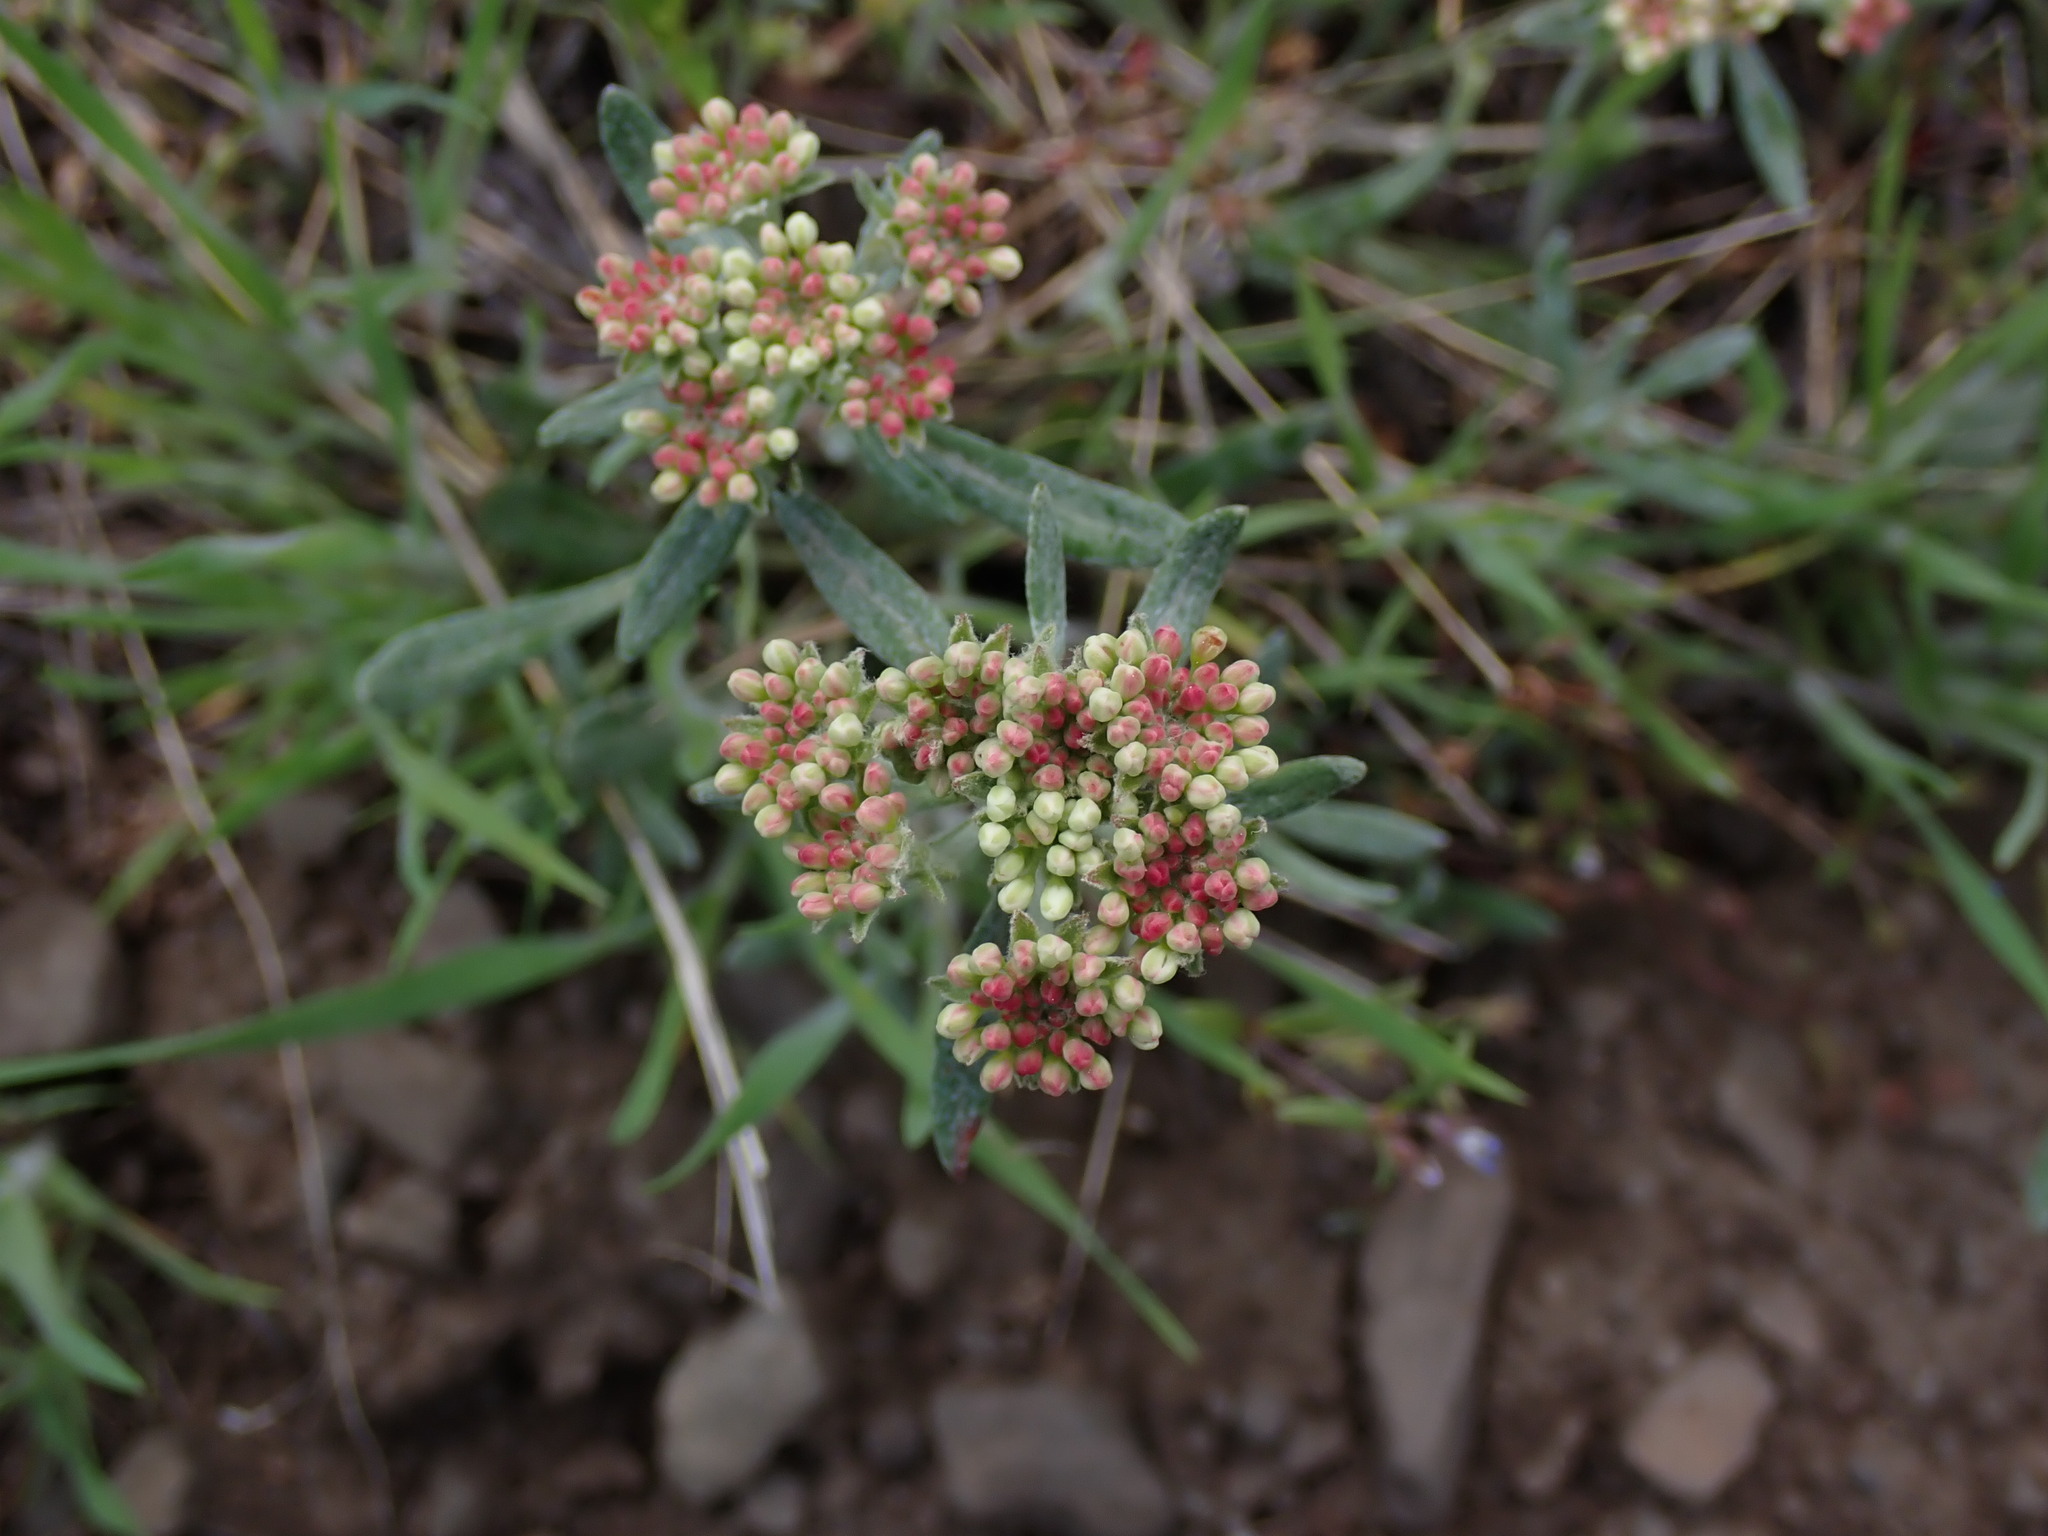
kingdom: Plantae
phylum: Tracheophyta
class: Magnoliopsida
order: Caryophyllales
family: Polygonaceae
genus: Eriogonum
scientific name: Eriogonum heracleoides
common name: Wyeth's buckwheat
